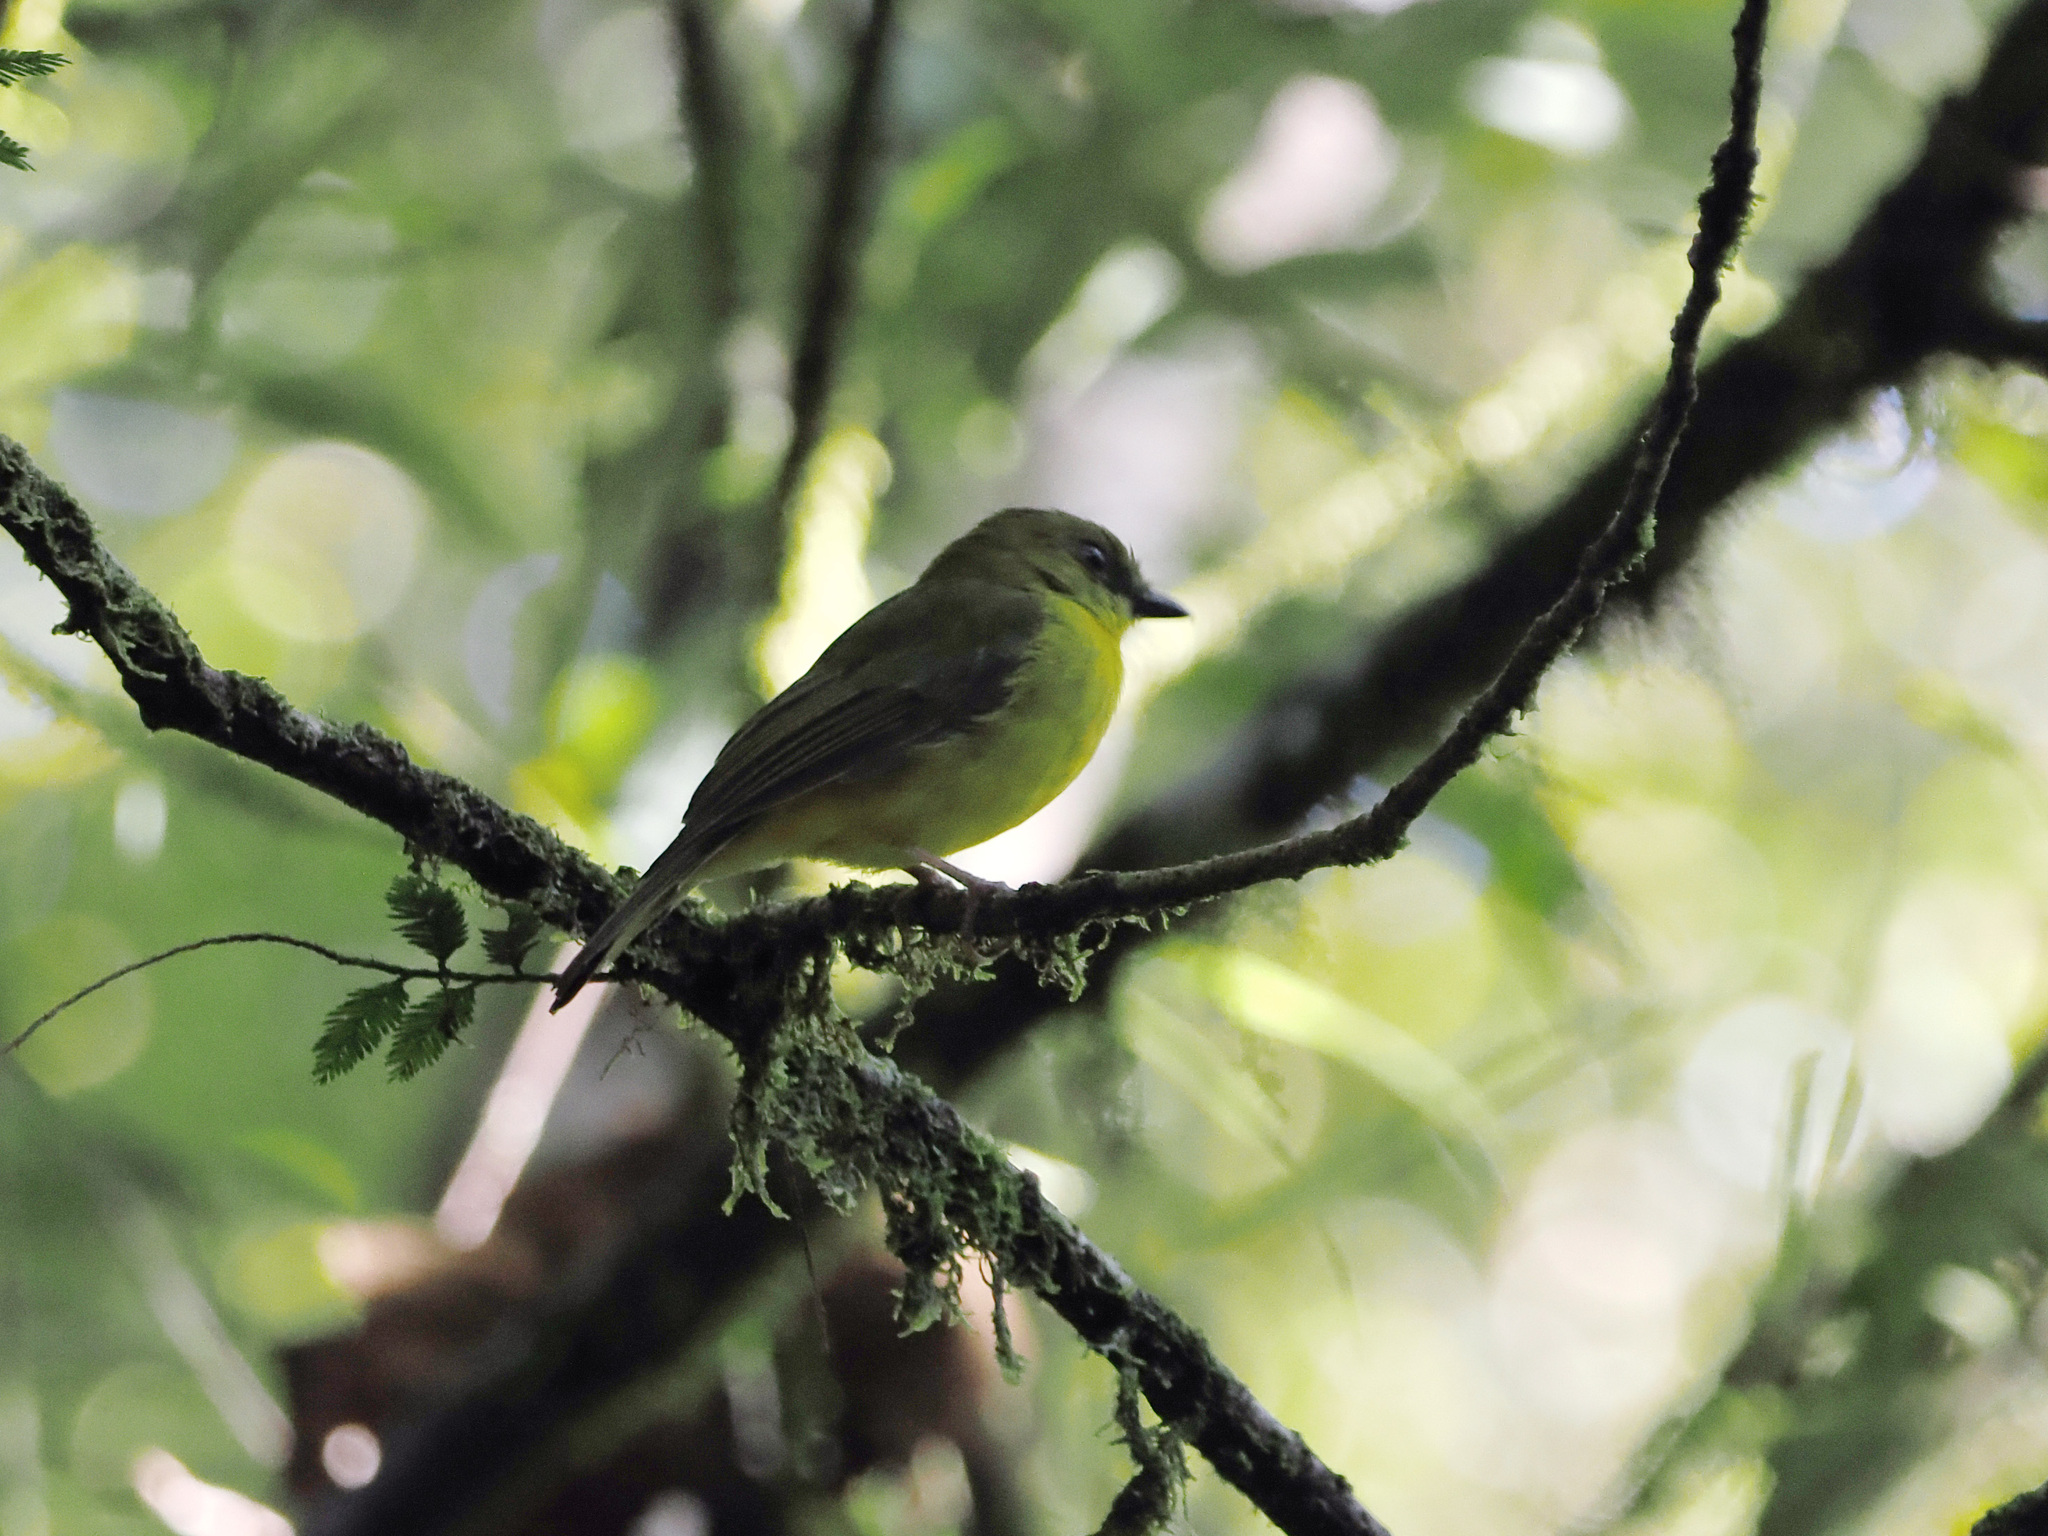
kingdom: Animalia
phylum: Chordata
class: Aves
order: Passeriformes
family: Pachycephalidae
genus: Pachycephala
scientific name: Pachycephala hypoxantha
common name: Bornean whistler
